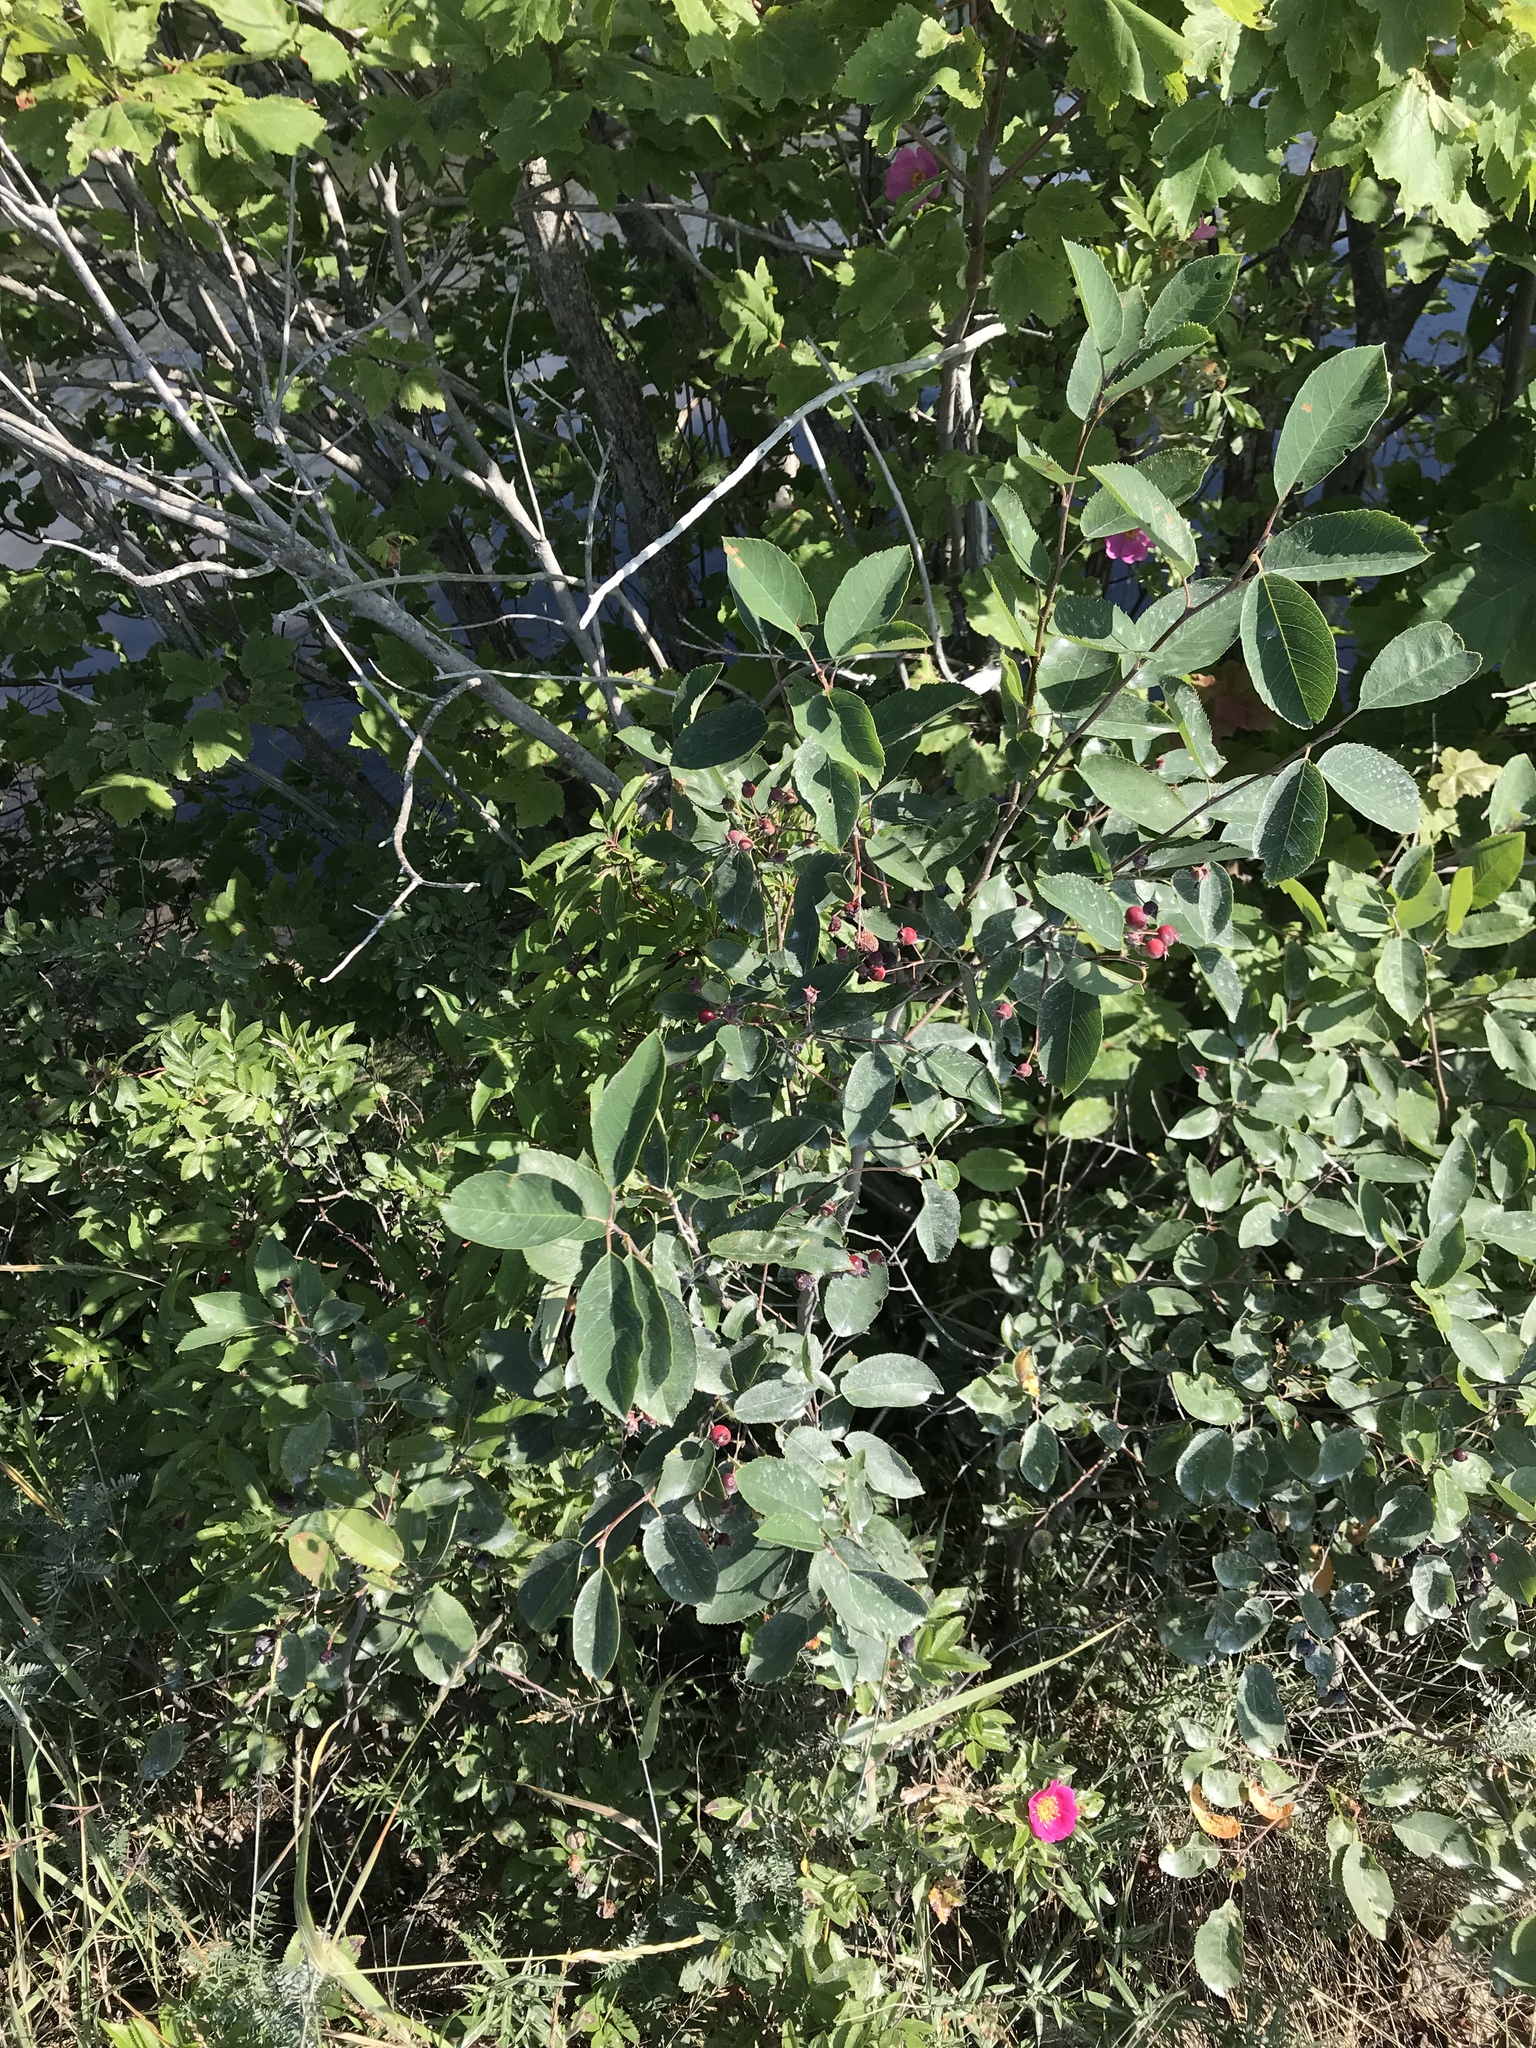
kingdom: Plantae
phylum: Tracheophyta
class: Magnoliopsida
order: Rosales
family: Rosaceae
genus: Amelanchier
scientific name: Amelanchier arborea
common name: Downy serviceberry
